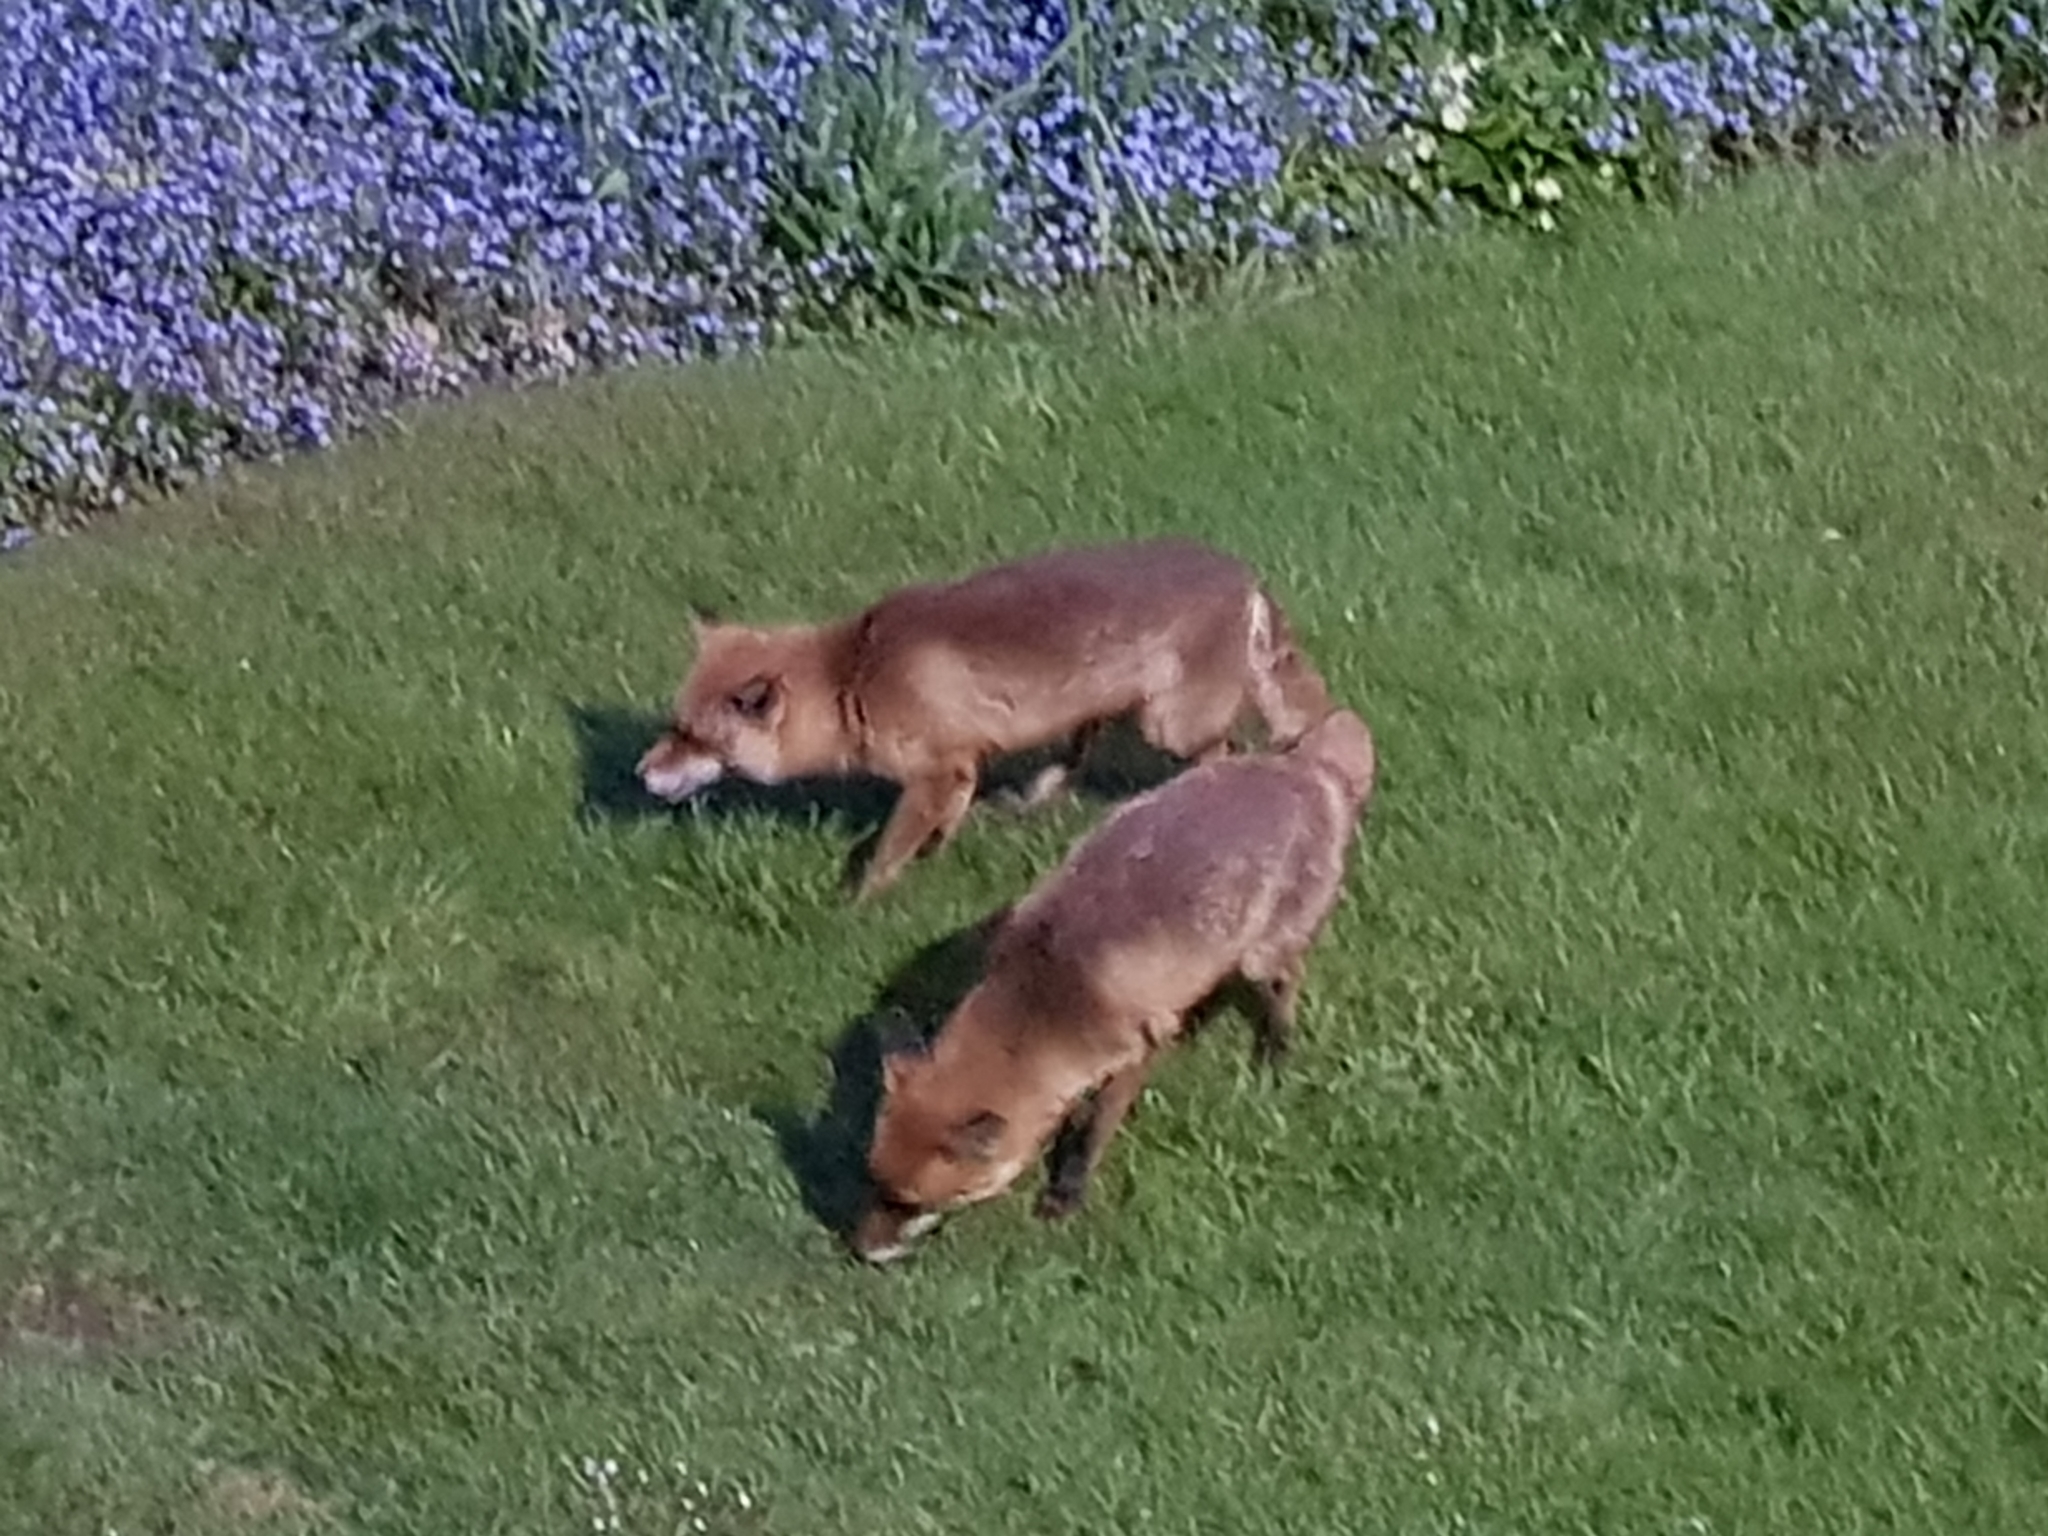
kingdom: Animalia
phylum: Chordata
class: Mammalia
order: Carnivora
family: Canidae
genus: Vulpes
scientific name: Vulpes vulpes
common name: Red fox
